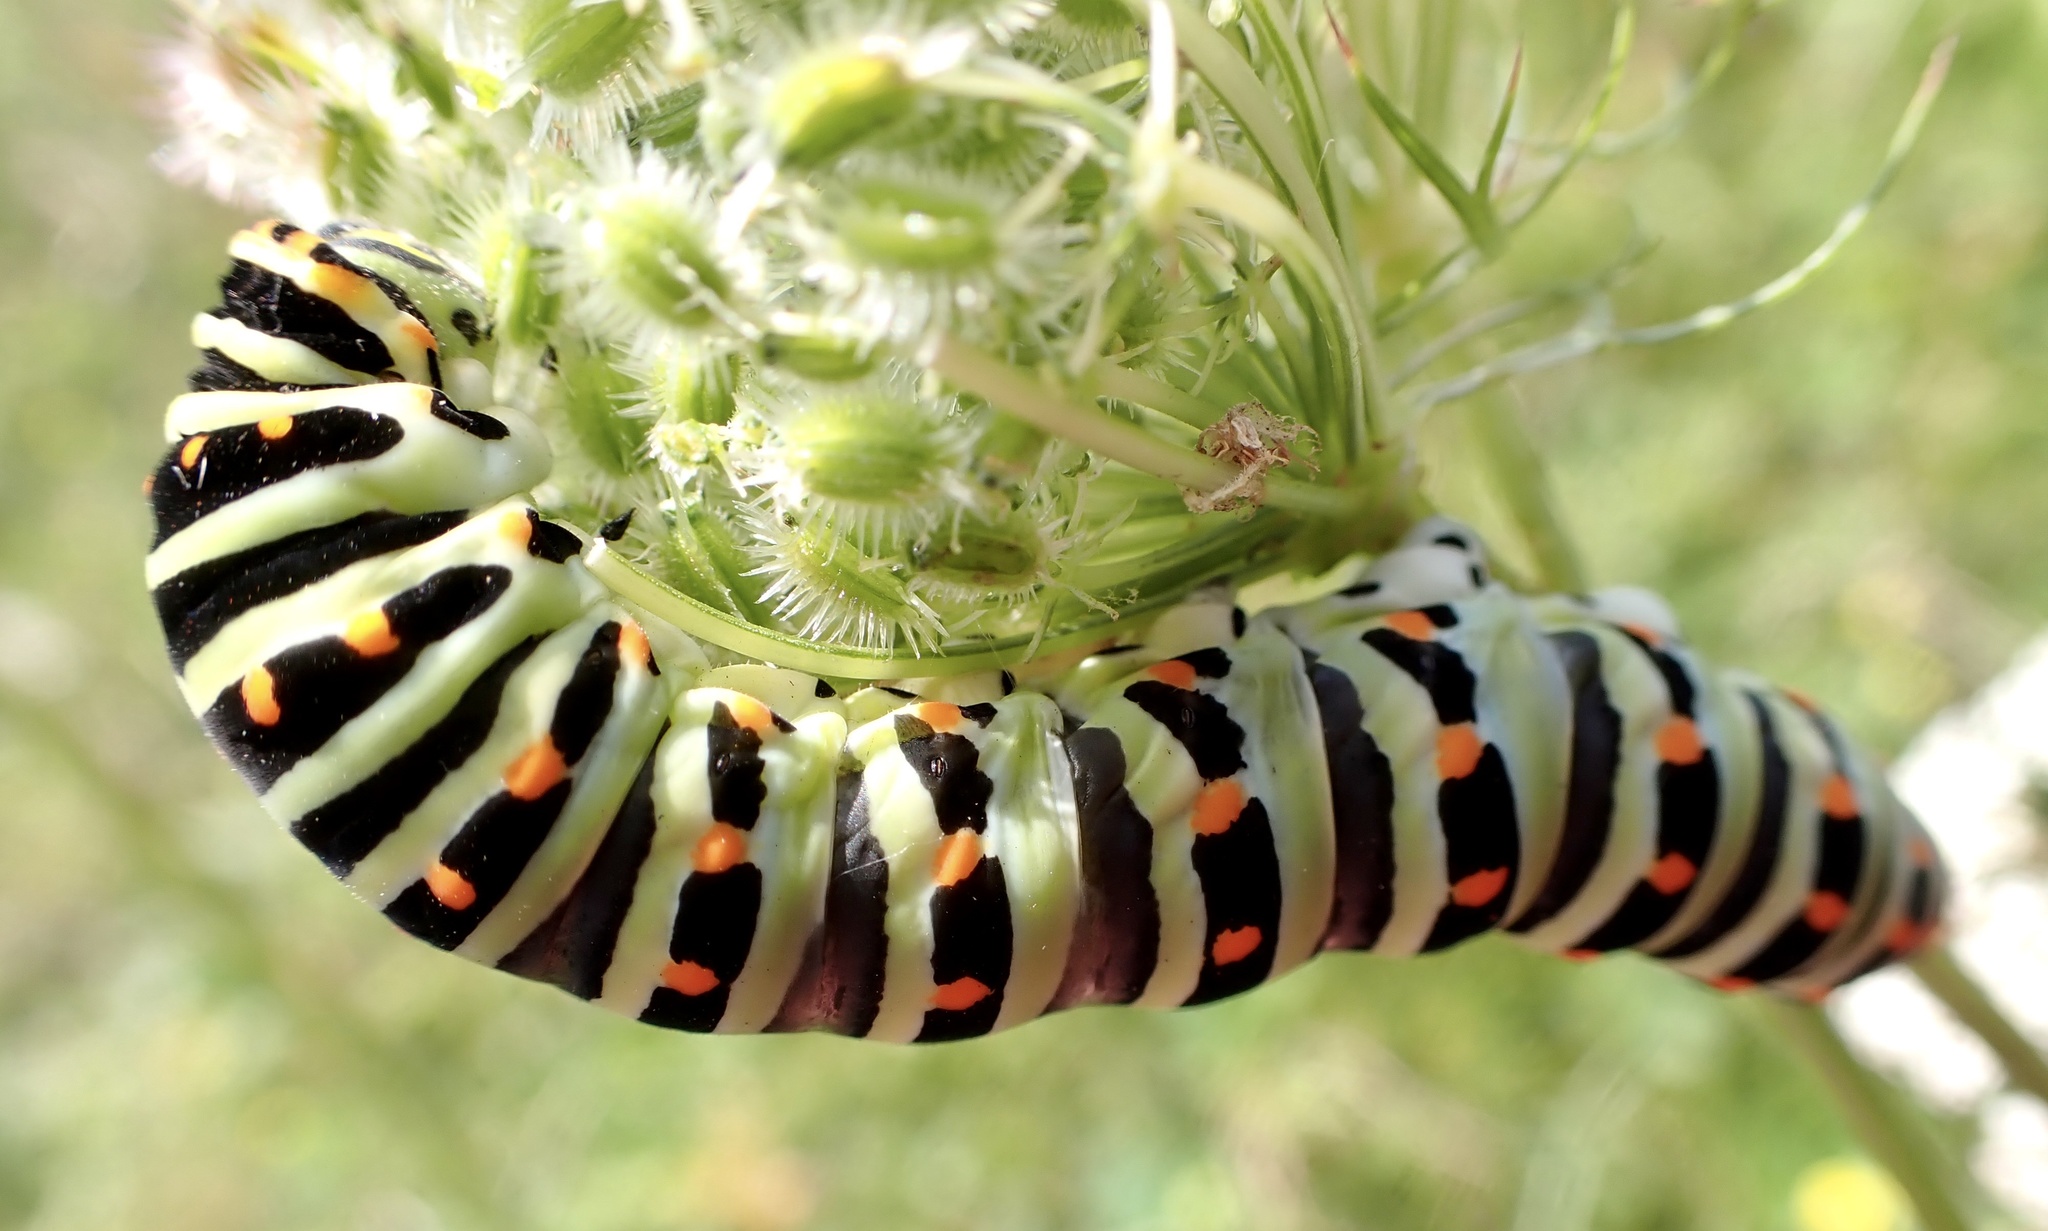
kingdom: Animalia
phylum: Arthropoda
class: Insecta
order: Lepidoptera
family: Papilionidae
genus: Papilio
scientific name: Papilio machaon
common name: Swallowtail
